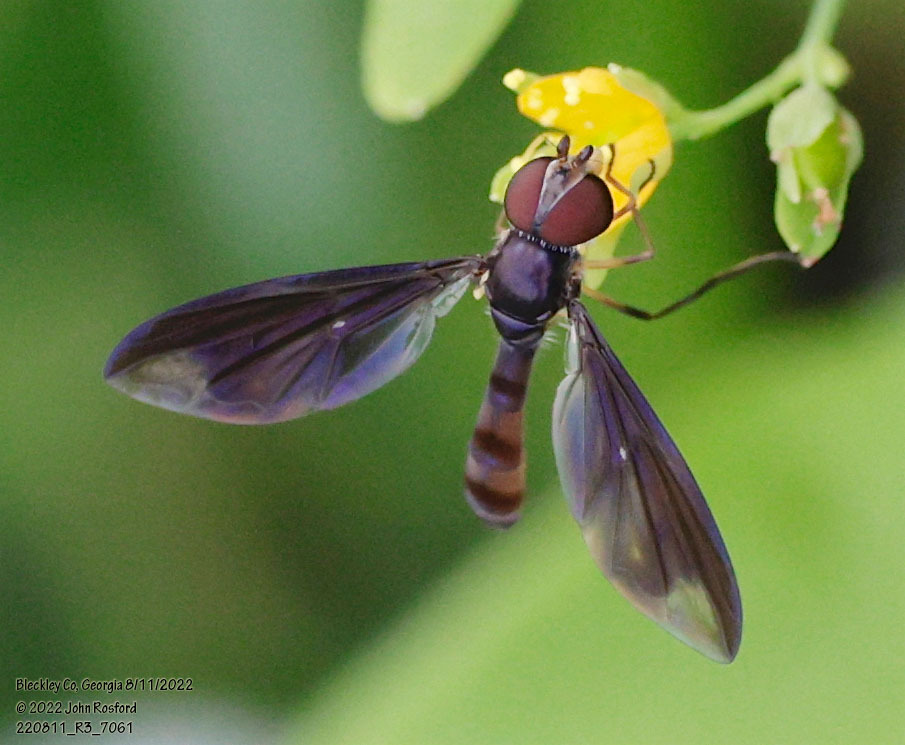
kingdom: Animalia
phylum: Arthropoda
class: Insecta
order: Diptera
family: Syrphidae
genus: Ocyptamus
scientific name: Ocyptamus fuscipennis
